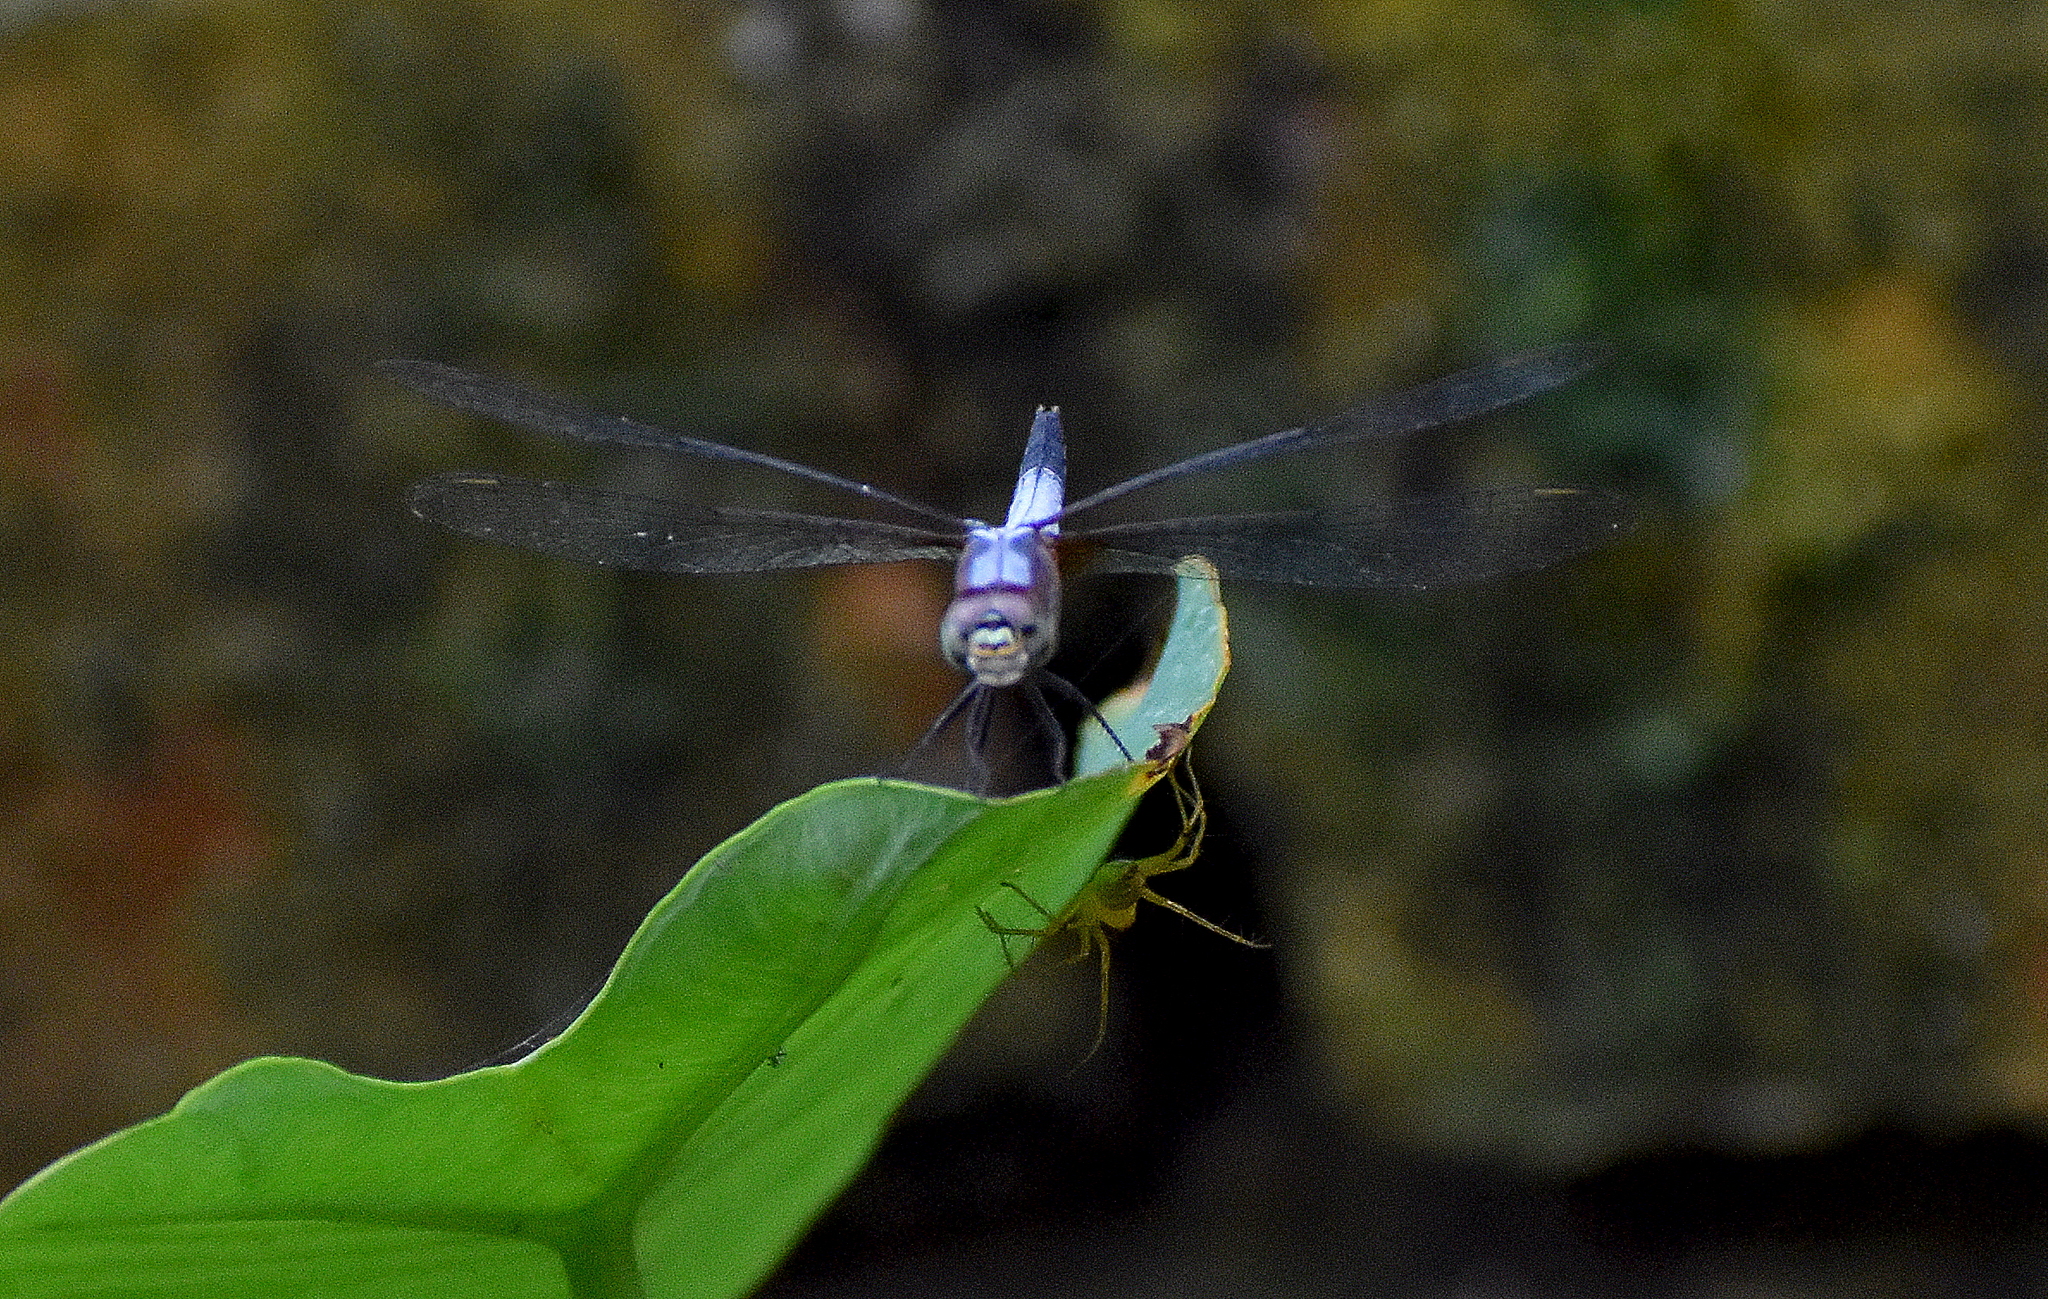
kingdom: Animalia
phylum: Arthropoda
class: Insecta
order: Odonata
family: Libellulidae
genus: Brachydiplax
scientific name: Brachydiplax chalybea
